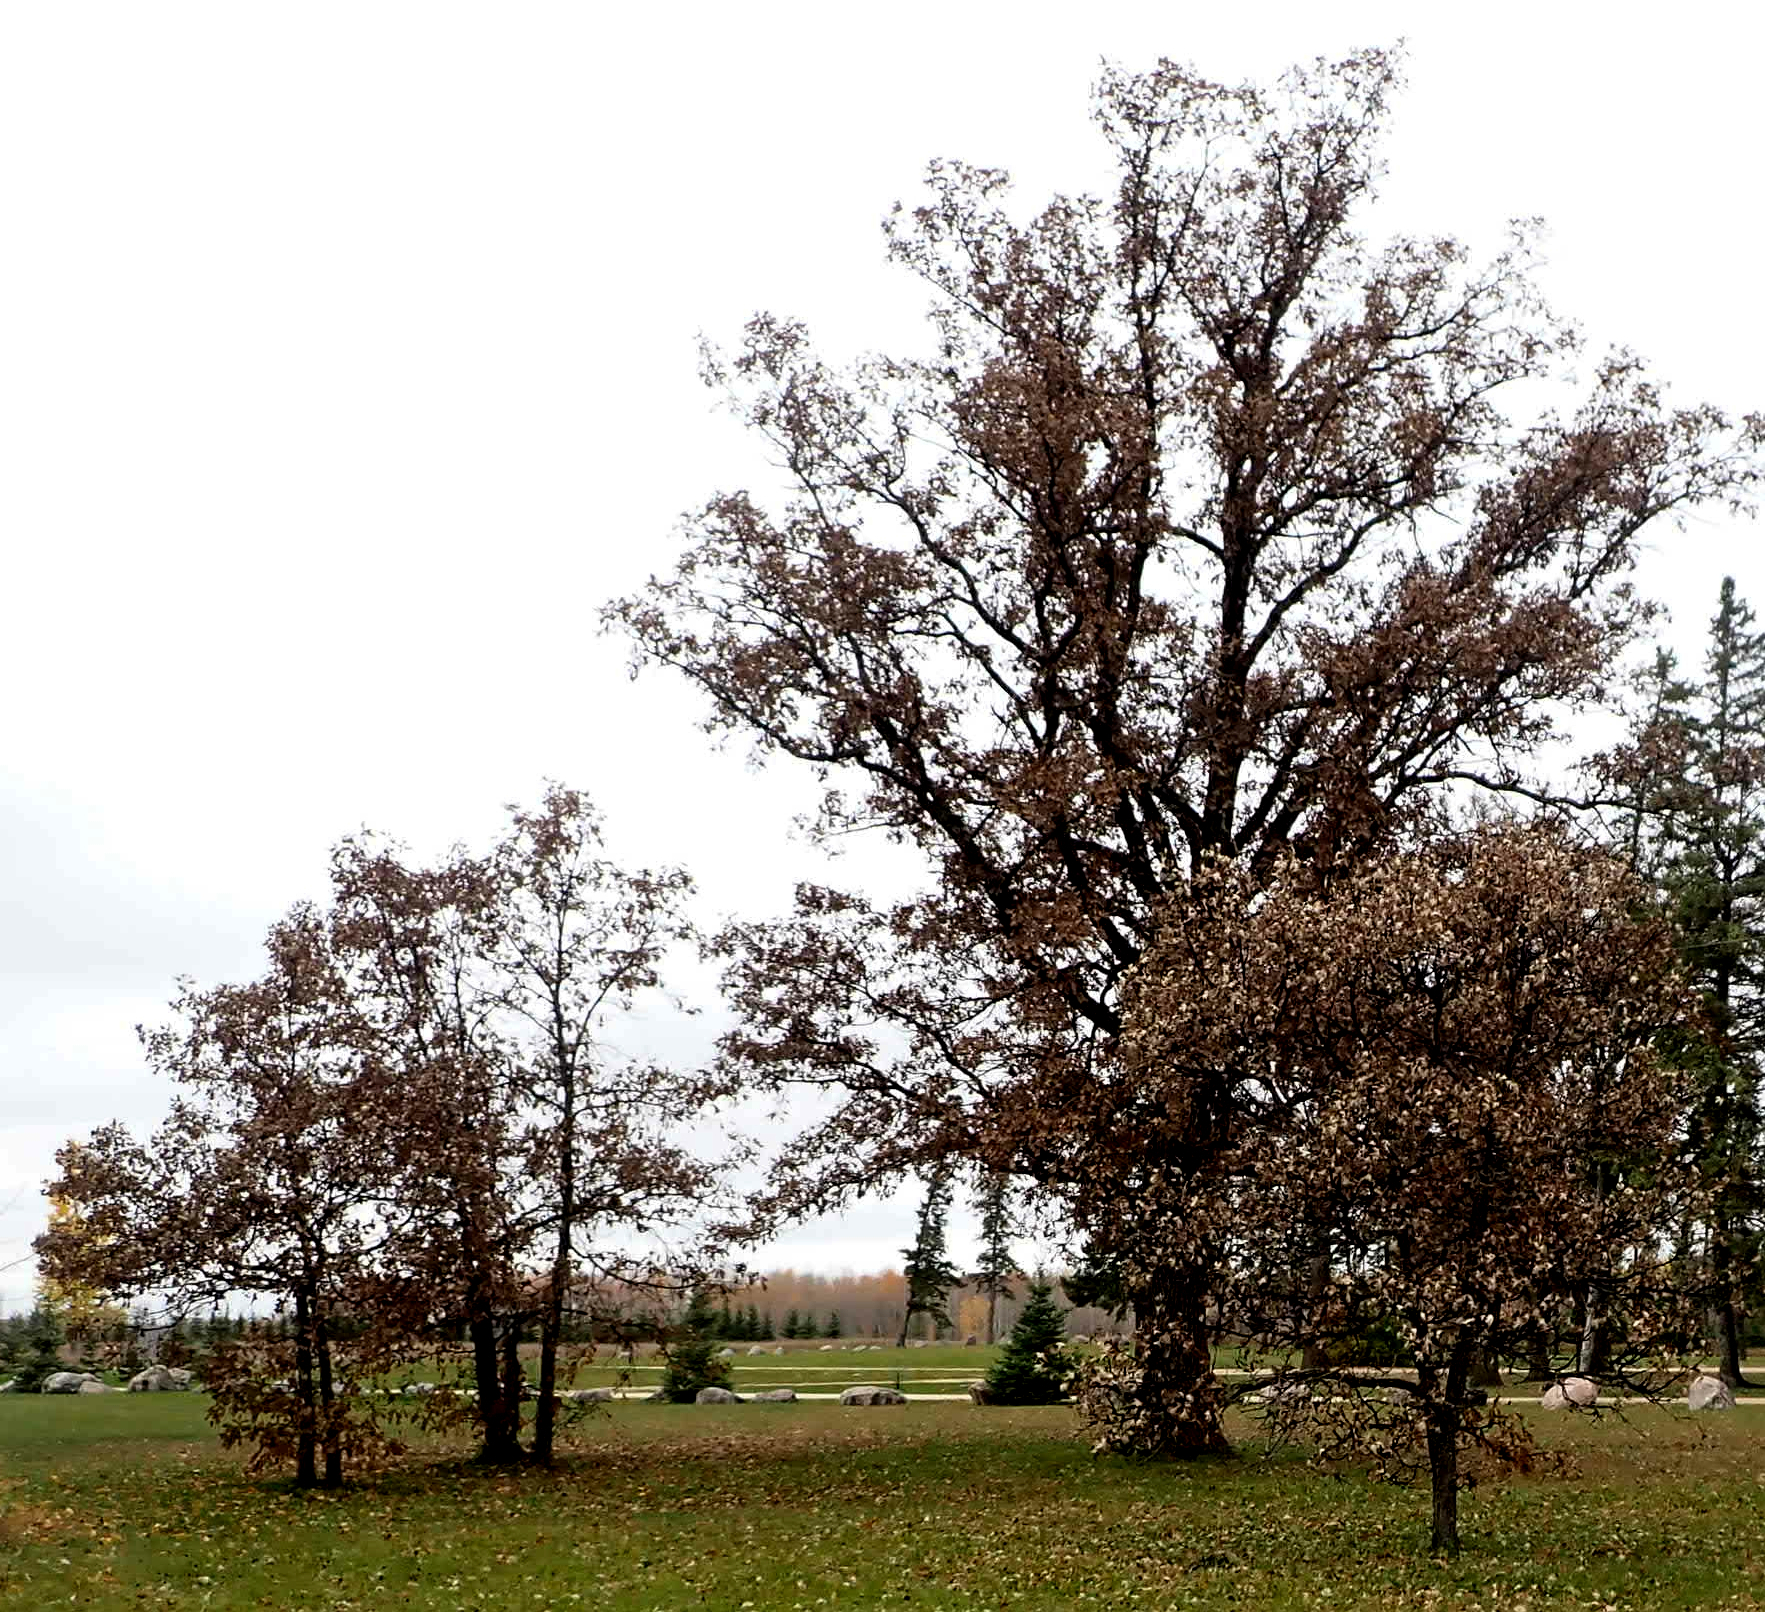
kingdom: Plantae
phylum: Tracheophyta
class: Magnoliopsida
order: Fagales
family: Fagaceae
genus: Quercus
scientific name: Quercus macrocarpa
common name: Bur oak
